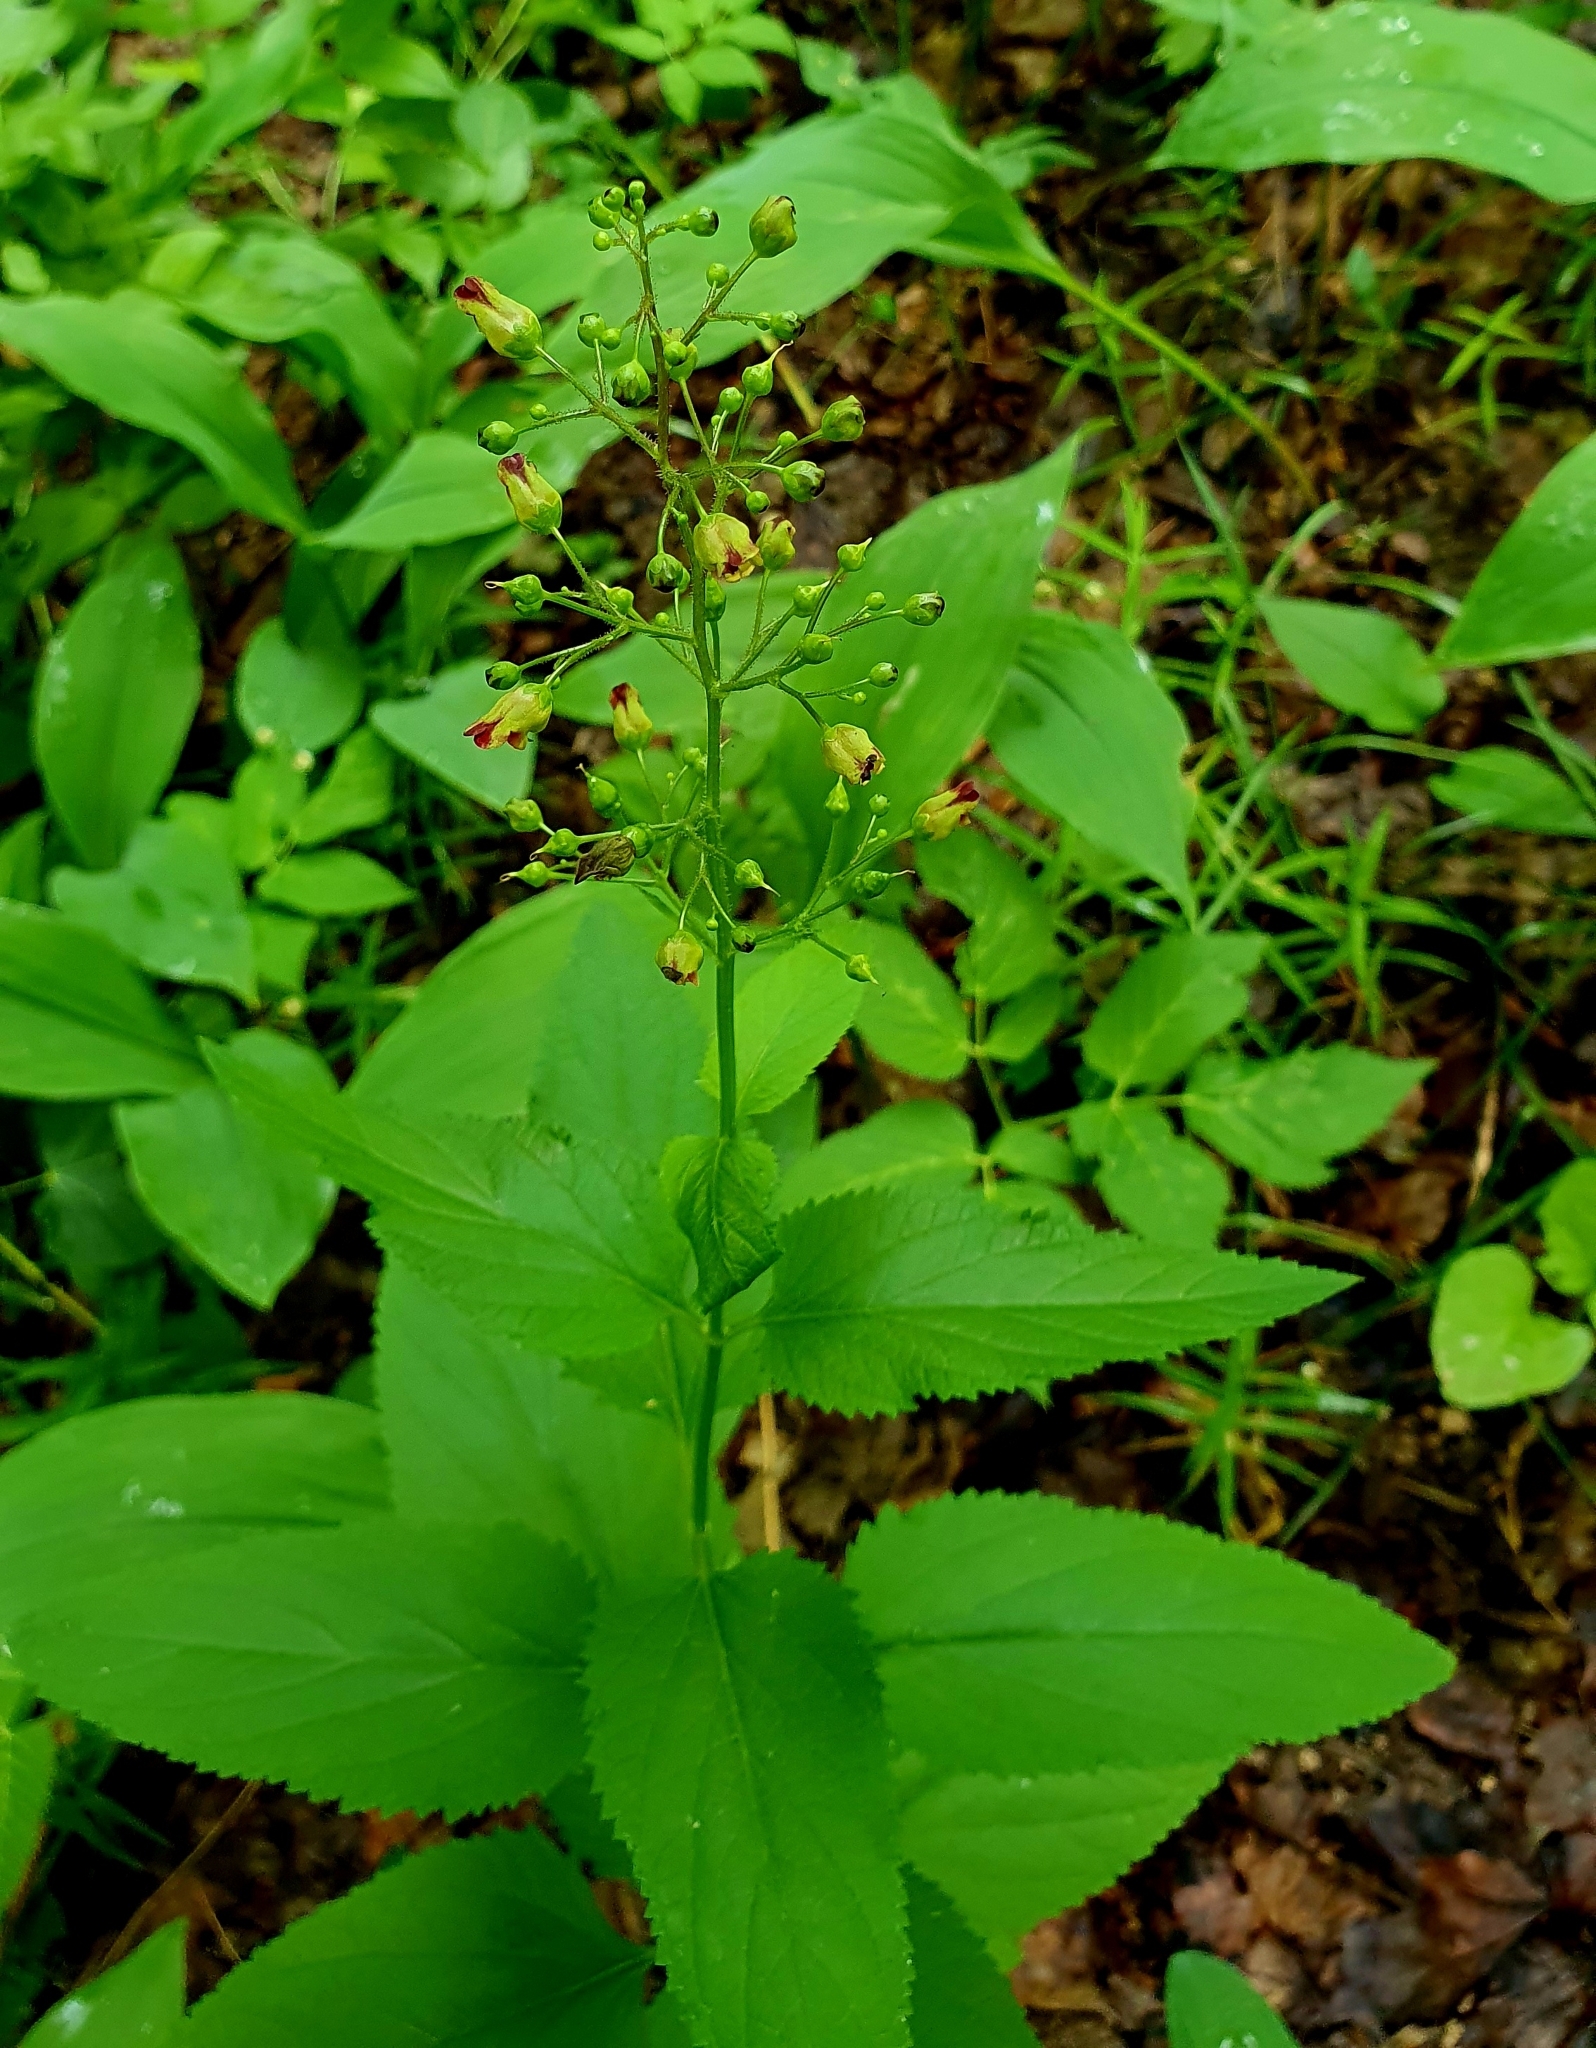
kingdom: Plantae
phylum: Tracheophyta
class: Magnoliopsida
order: Lamiales
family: Scrophulariaceae
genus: Scrophularia
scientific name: Scrophularia nodosa
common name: Common figwort
